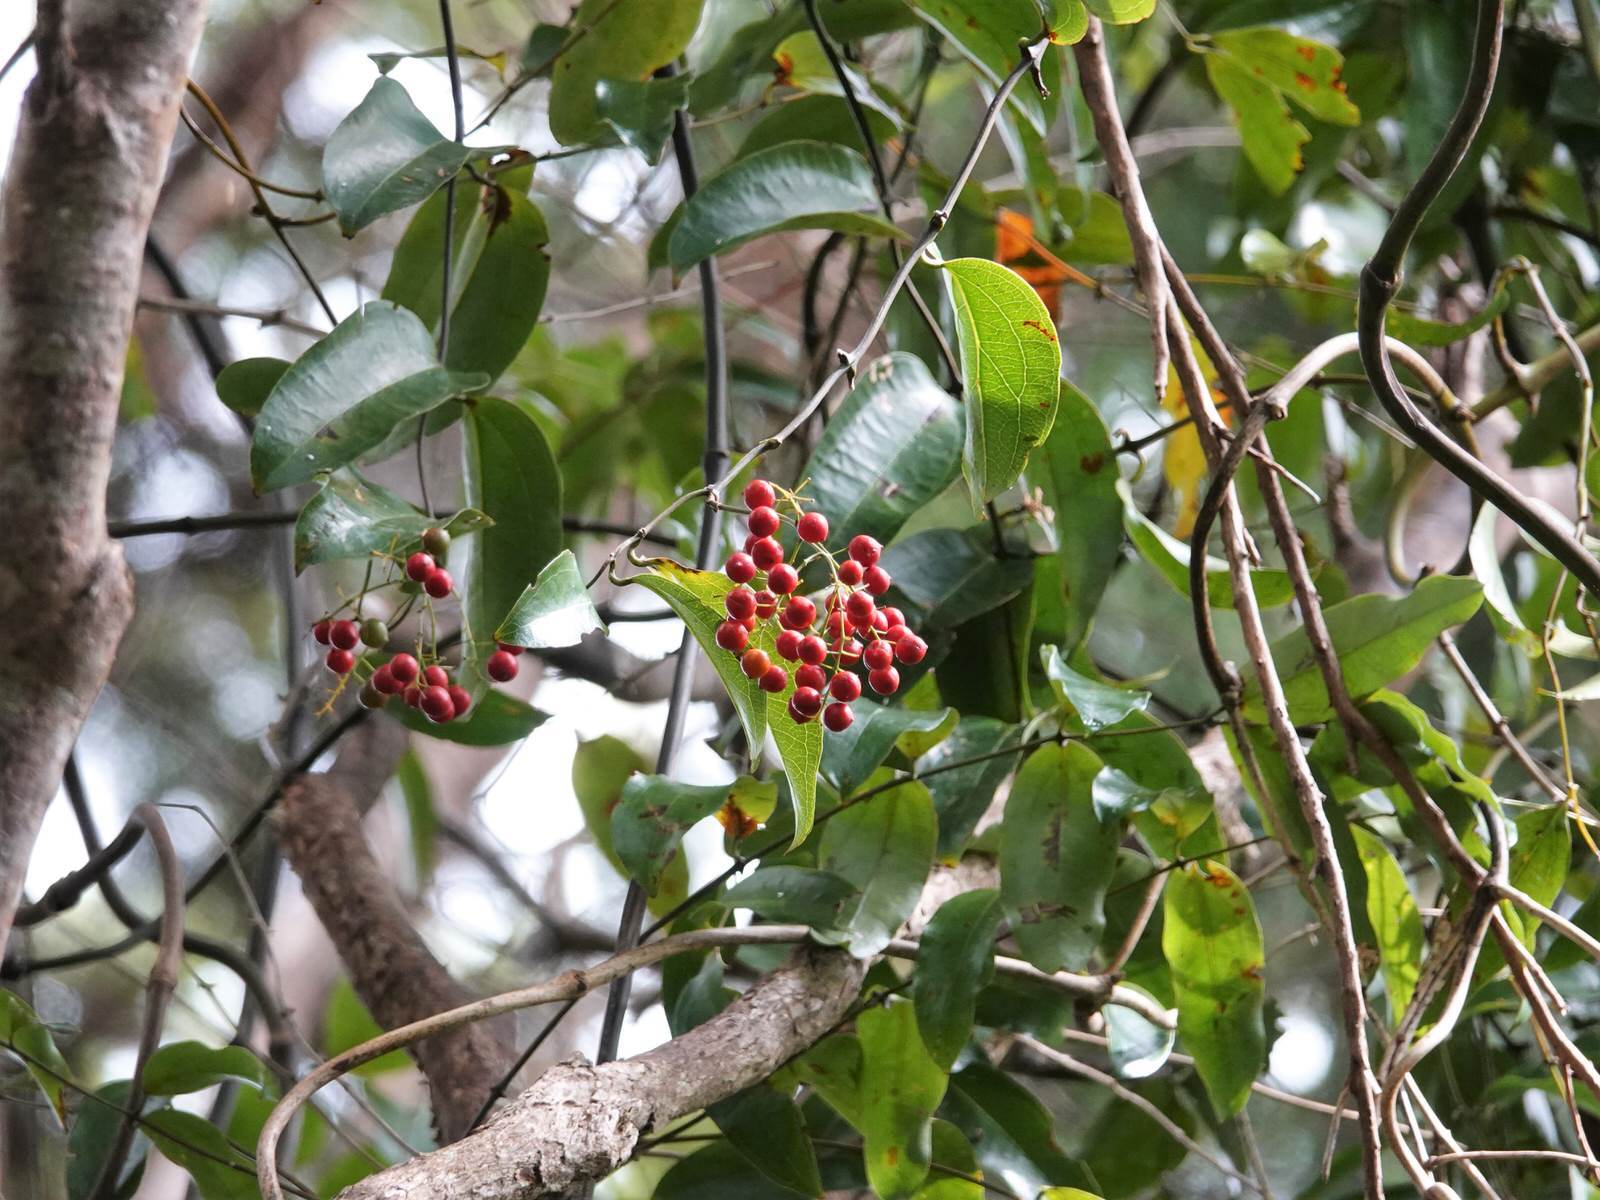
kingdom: Plantae
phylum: Tracheophyta
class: Liliopsida
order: Liliales
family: Ripogonaceae
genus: Ripogonum
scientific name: Ripogonum scandens
